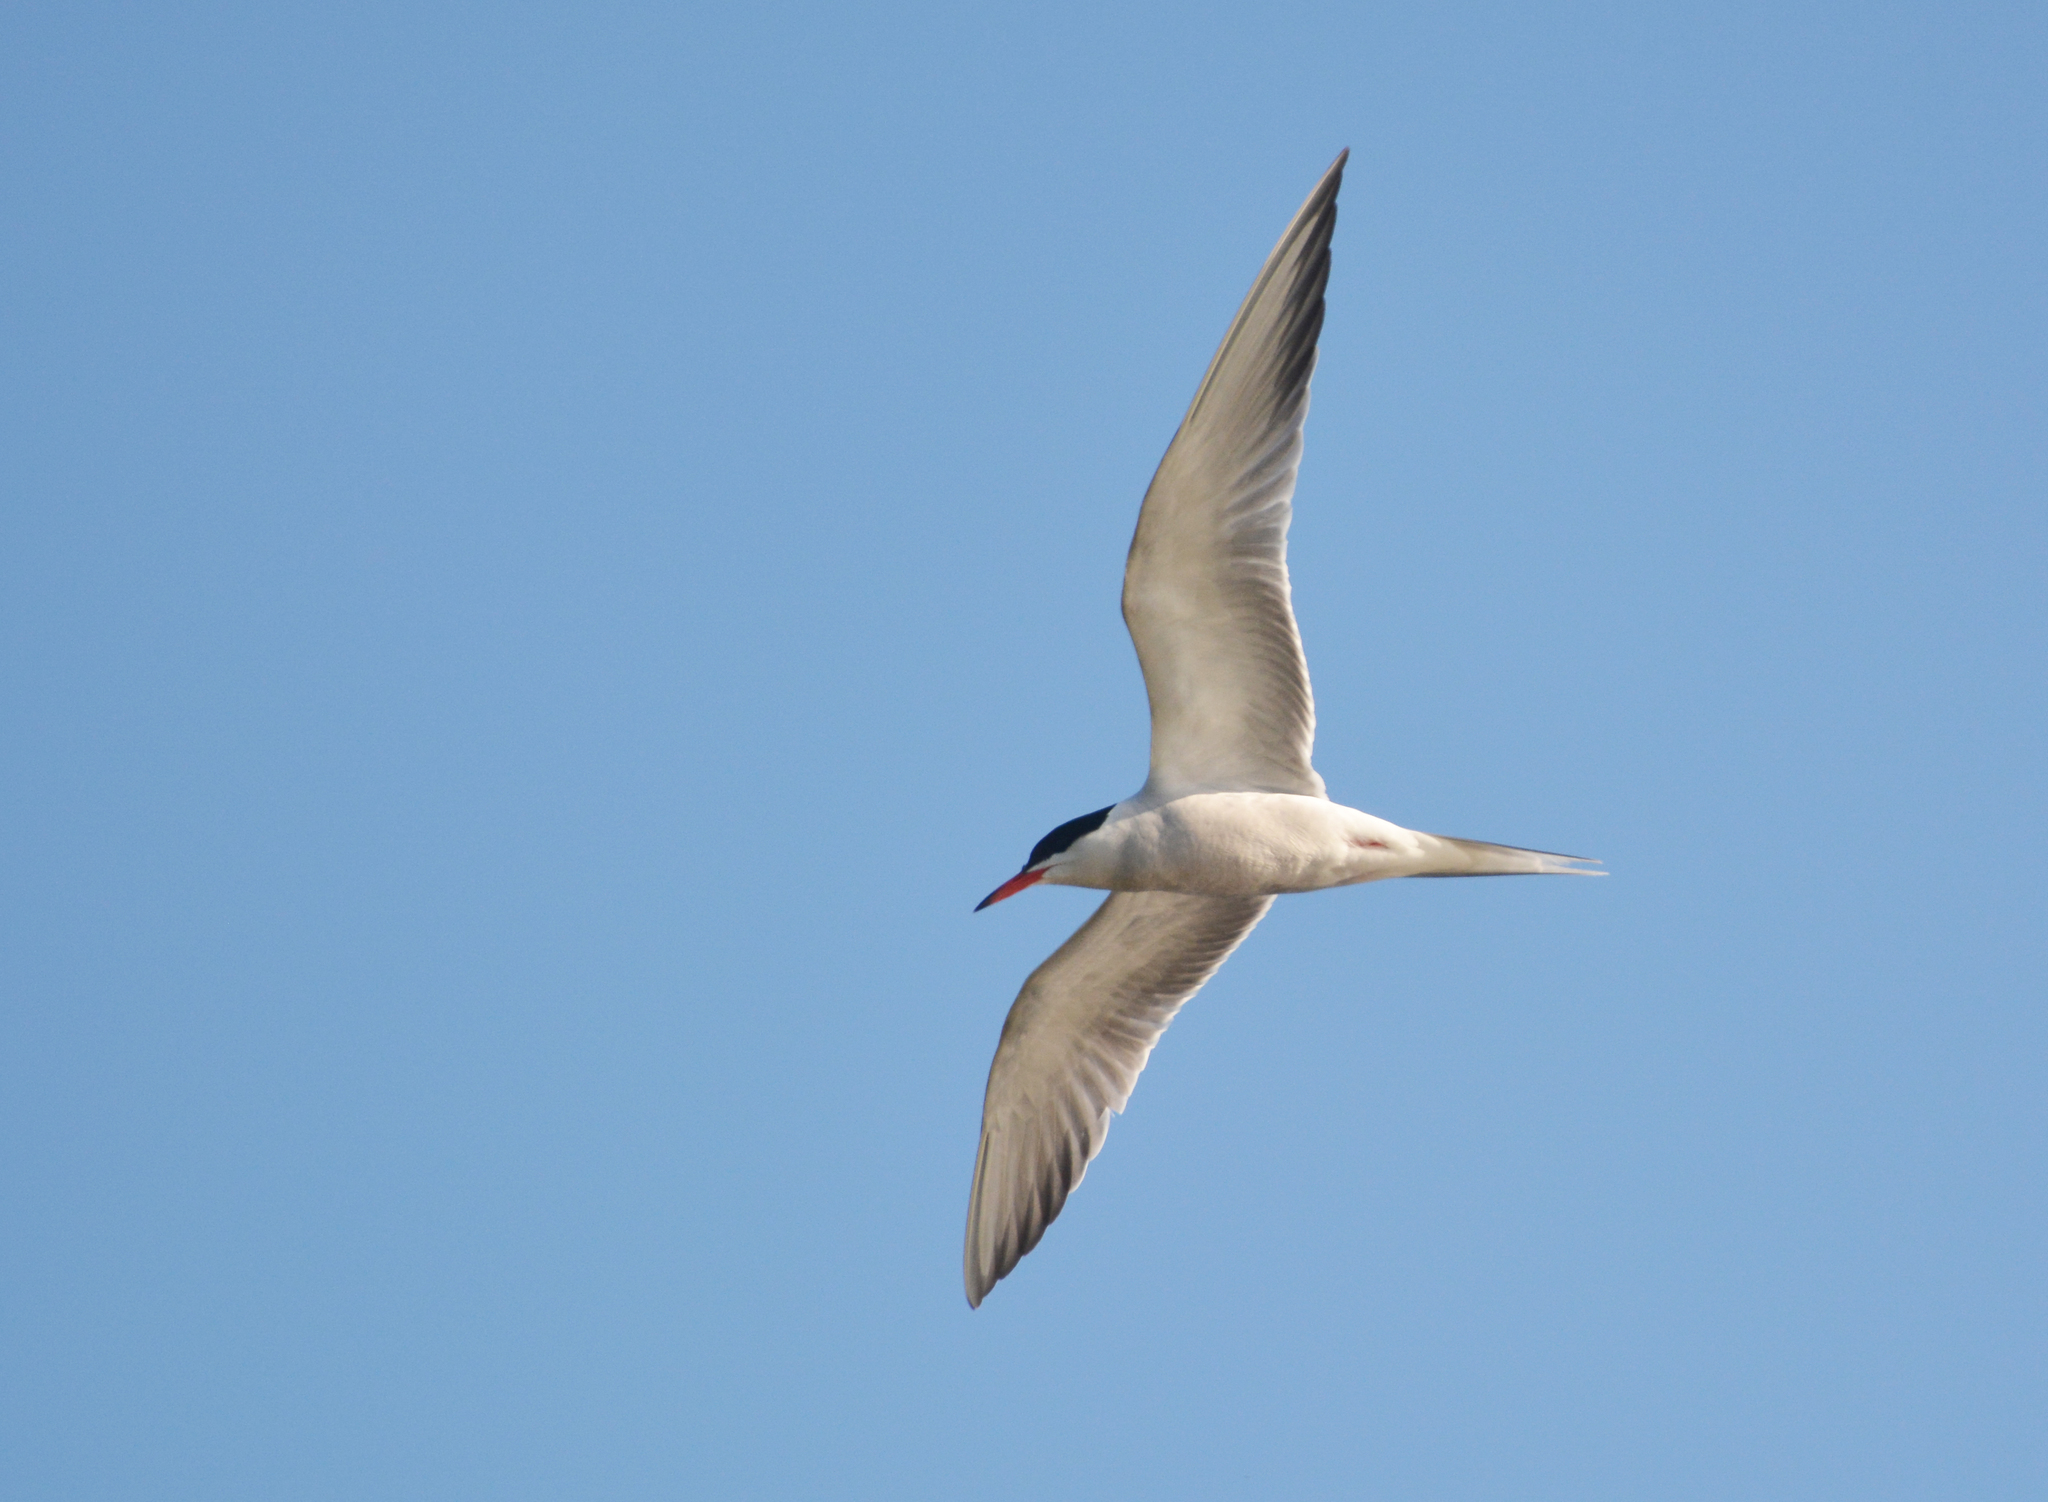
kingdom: Animalia
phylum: Chordata
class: Aves
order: Charadriiformes
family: Laridae
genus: Sterna
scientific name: Sterna hirundo
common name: Common tern
